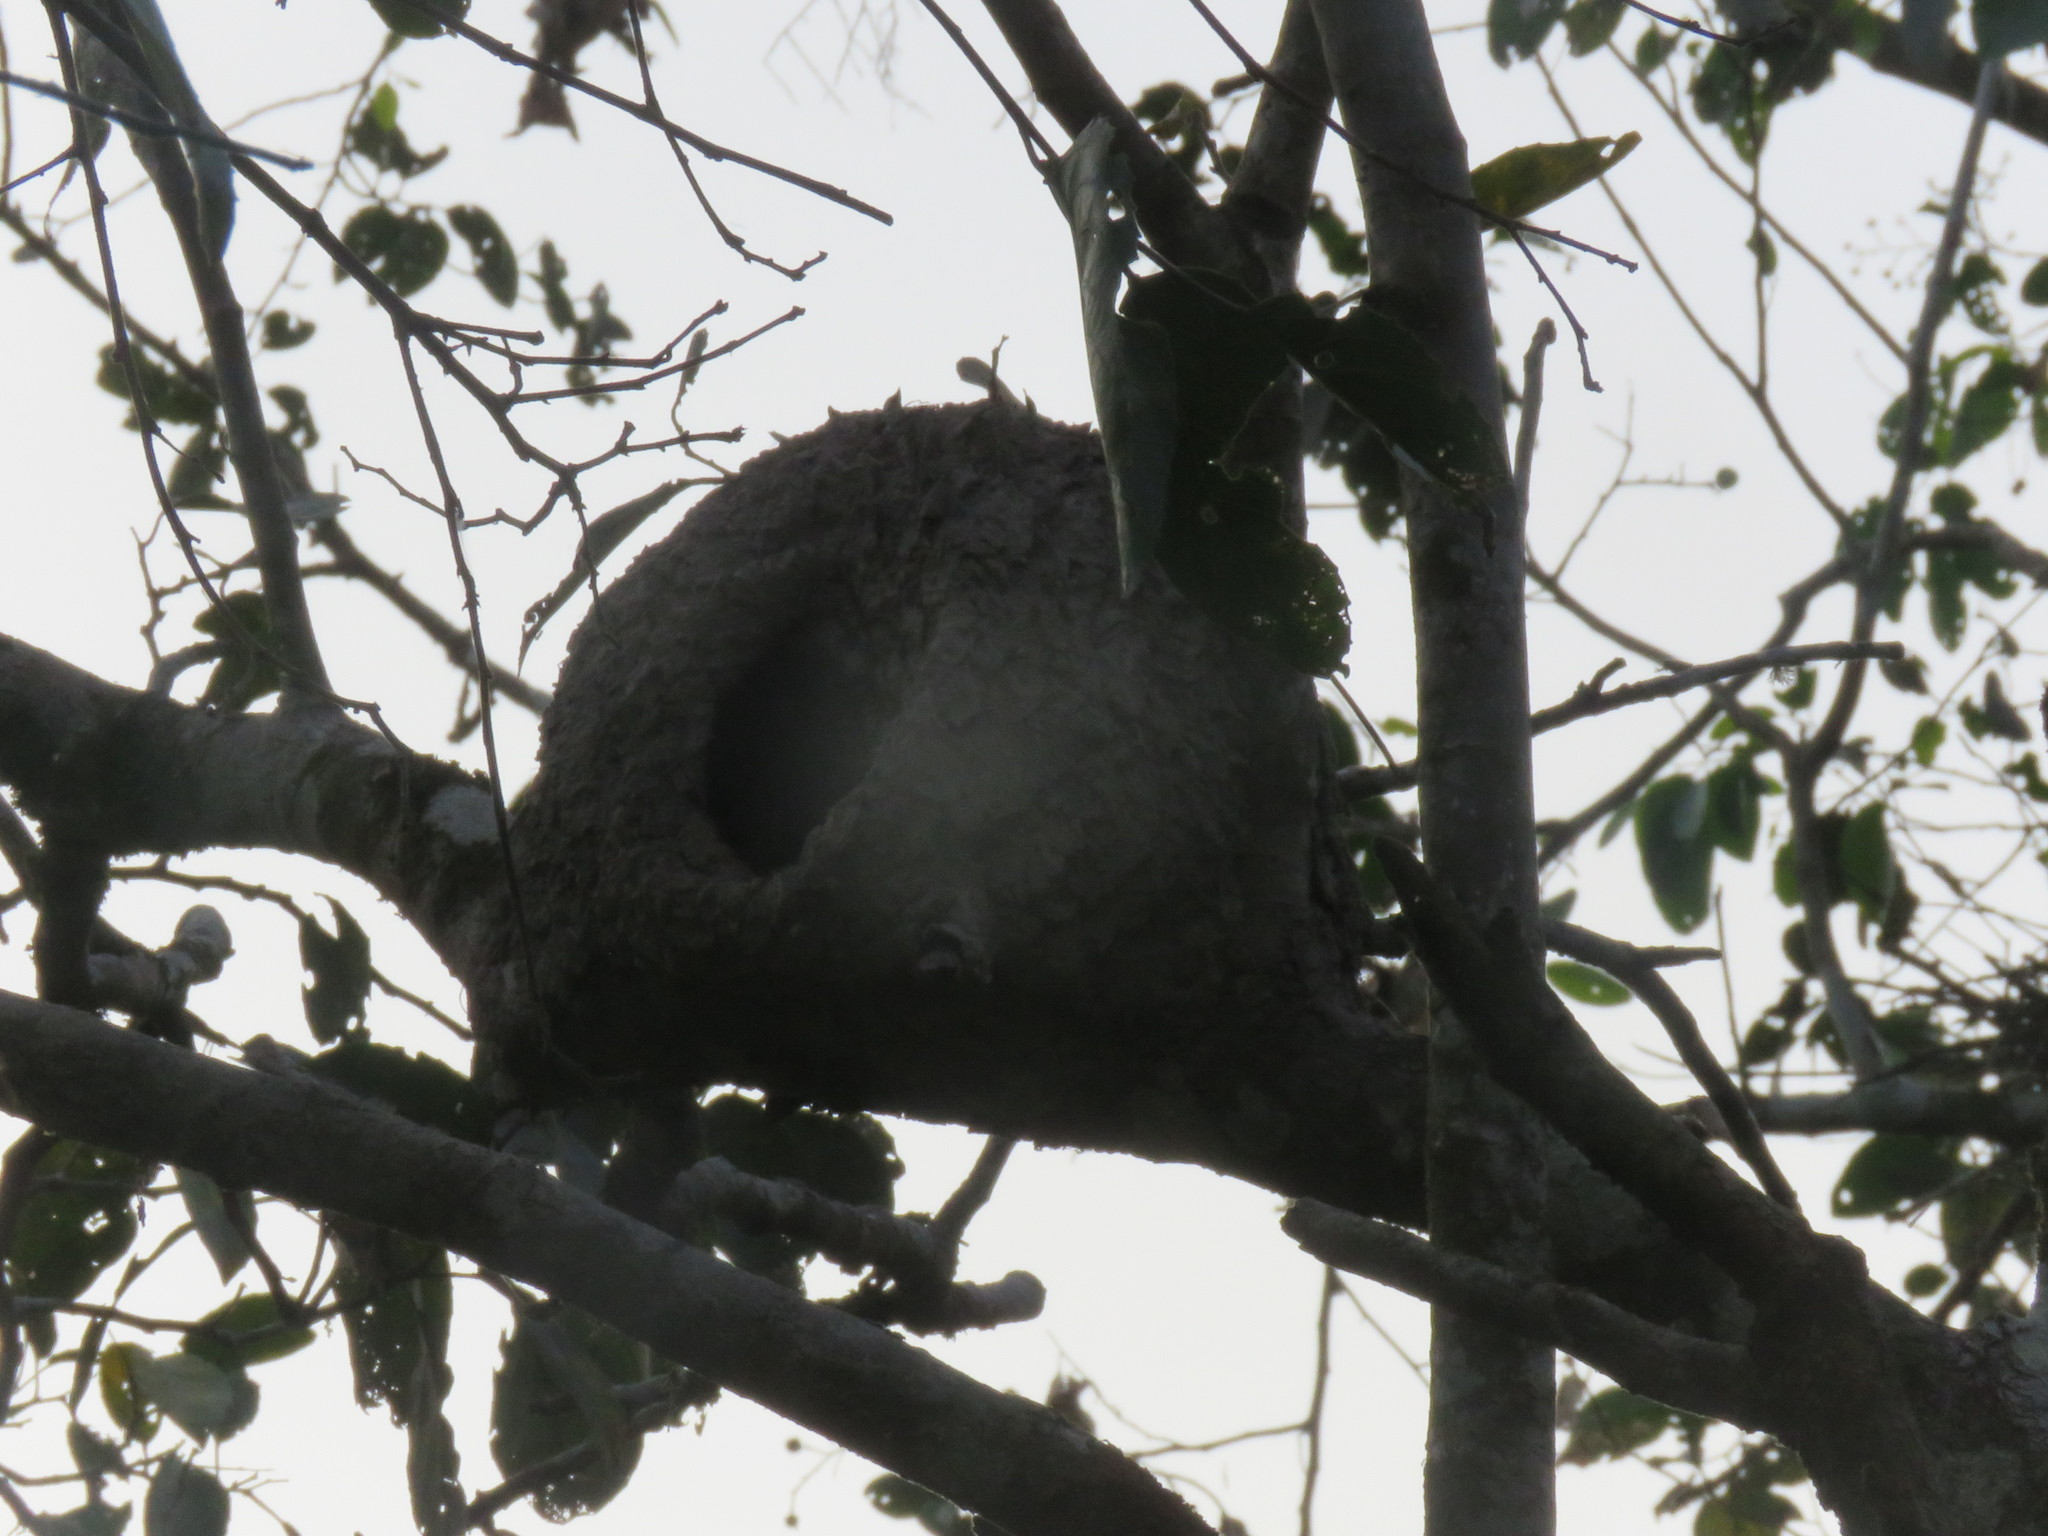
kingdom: Animalia
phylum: Chordata
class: Aves
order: Passeriformes
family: Furnariidae
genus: Furnarius
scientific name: Furnarius leucopus
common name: Pale-legged hornero
